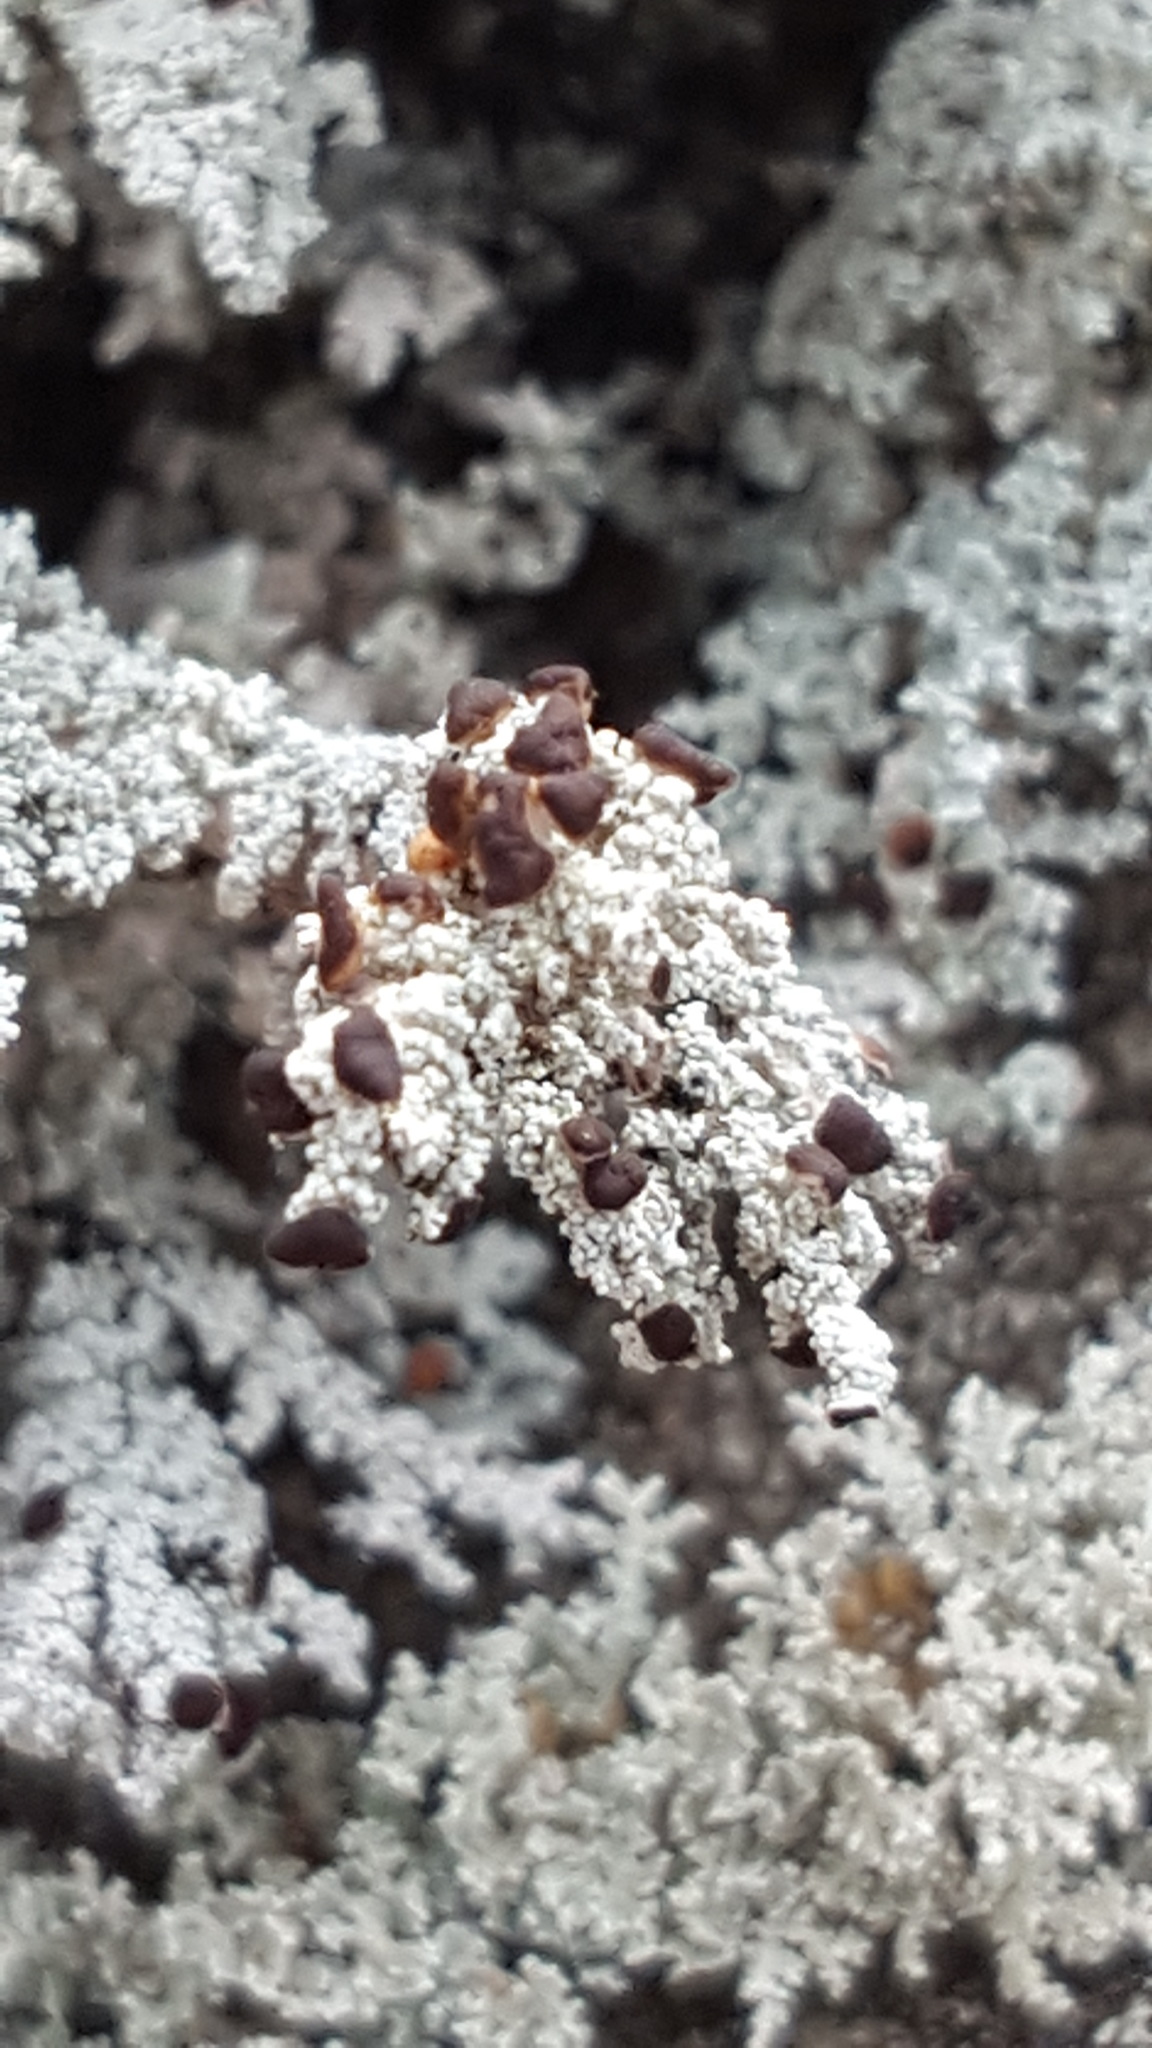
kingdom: Fungi
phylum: Ascomycota
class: Lecanoromycetes
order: Lecanorales
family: Stereocaulaceae
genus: Stereocaulon
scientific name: Stereocaulon saxatile
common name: Rock foam
